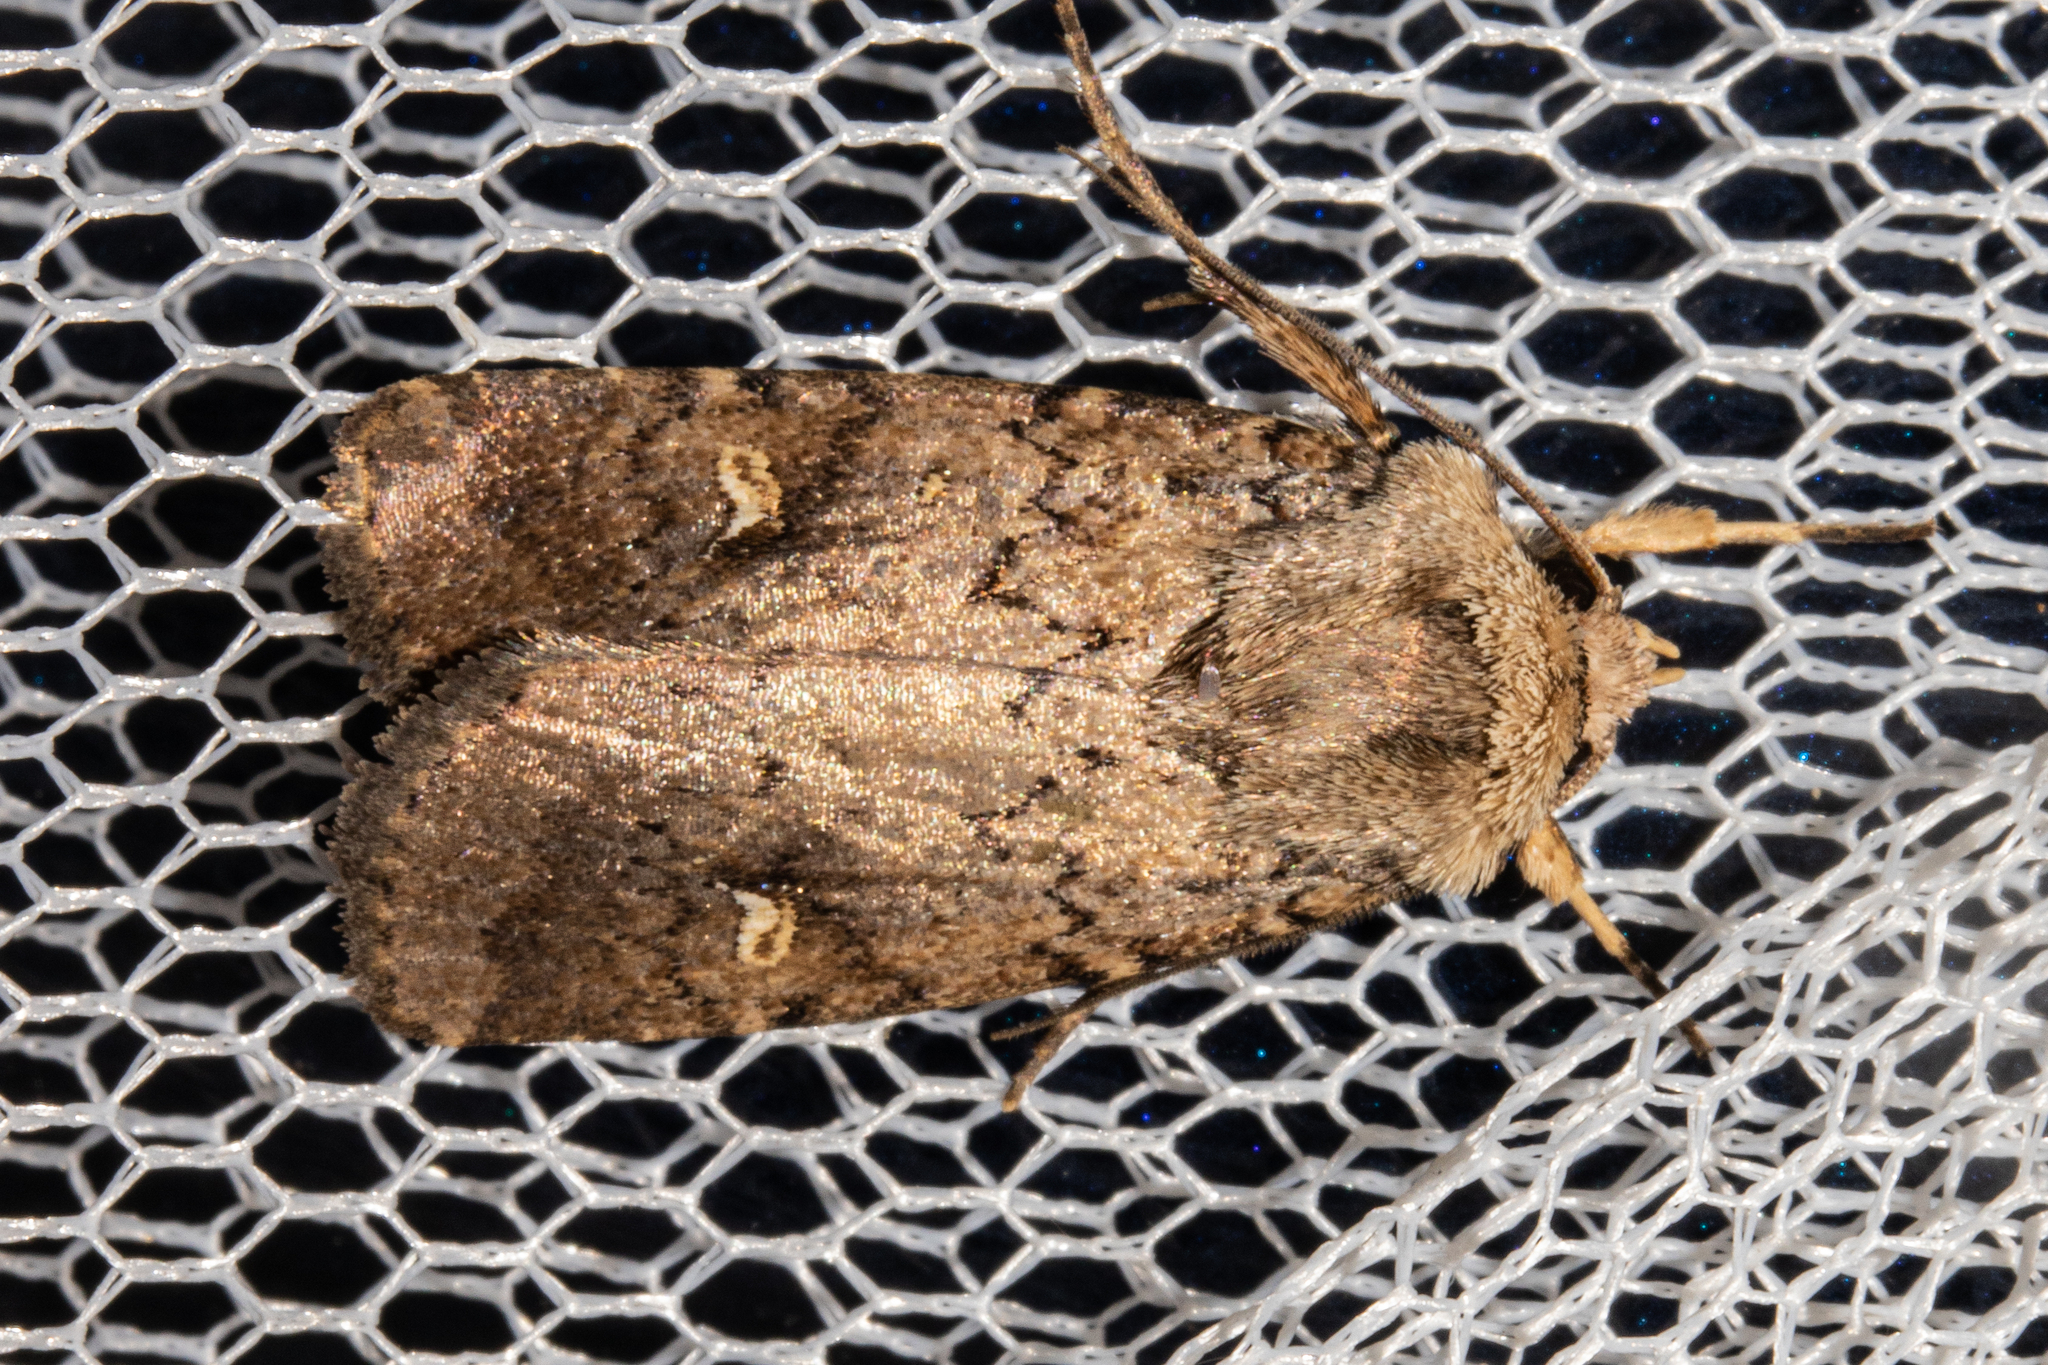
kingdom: Animalia
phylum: Arthropoda
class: Insecta
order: Lepidoptera
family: Noctuidae
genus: Proteuxoa
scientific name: Proteuxoa tetronycha
